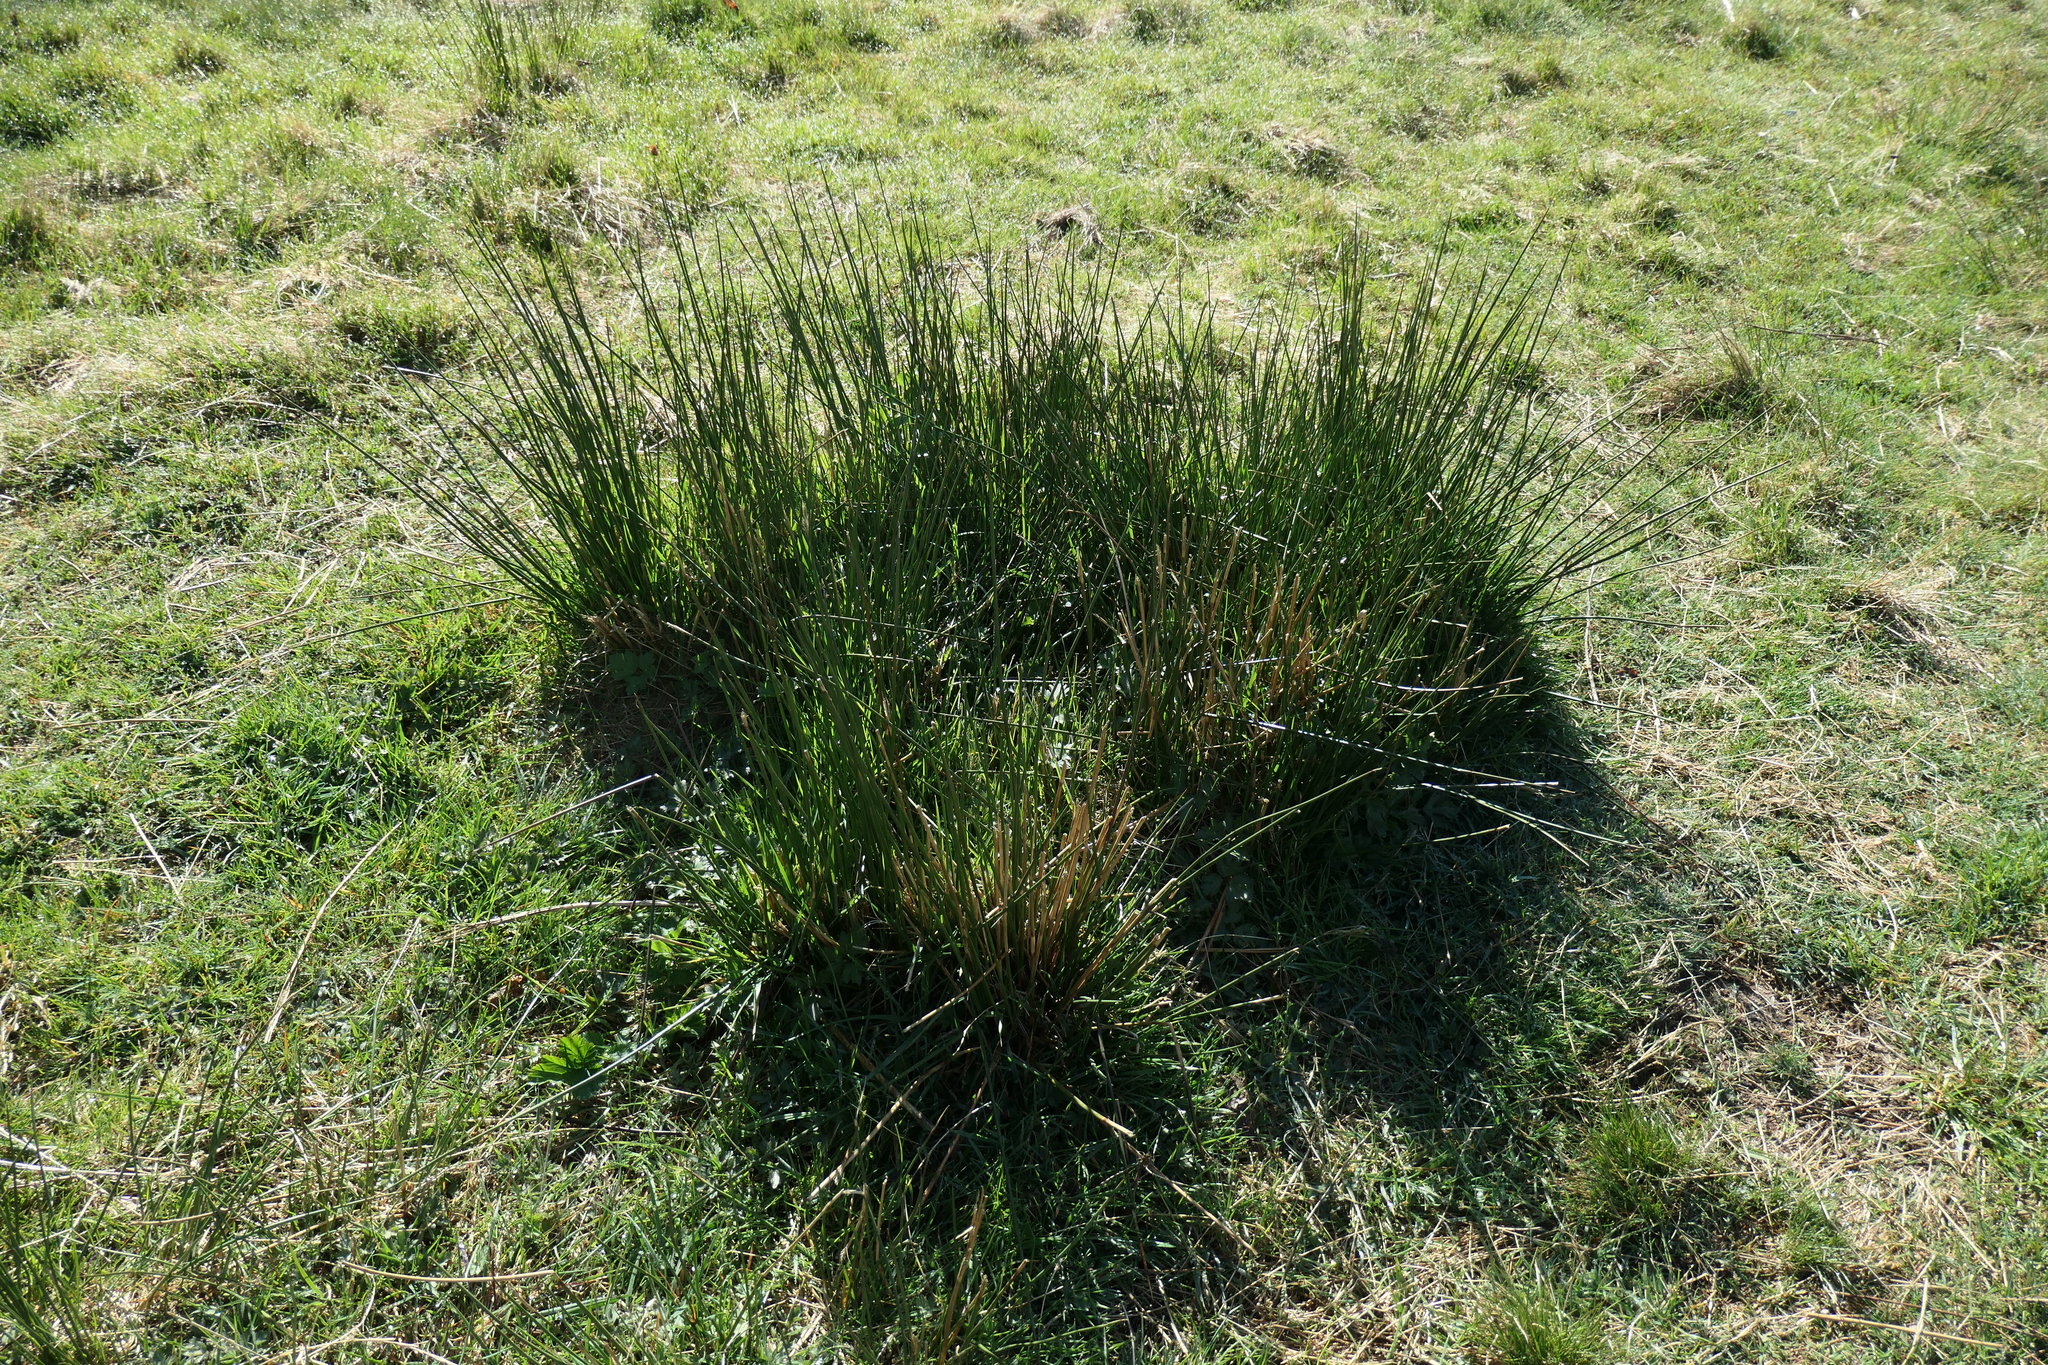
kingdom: Plantae
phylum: Tracheophyta
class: Liliopsida
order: Poales
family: Juncaceae
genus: Juncus
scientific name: Juncus effusus
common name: Soft rush
